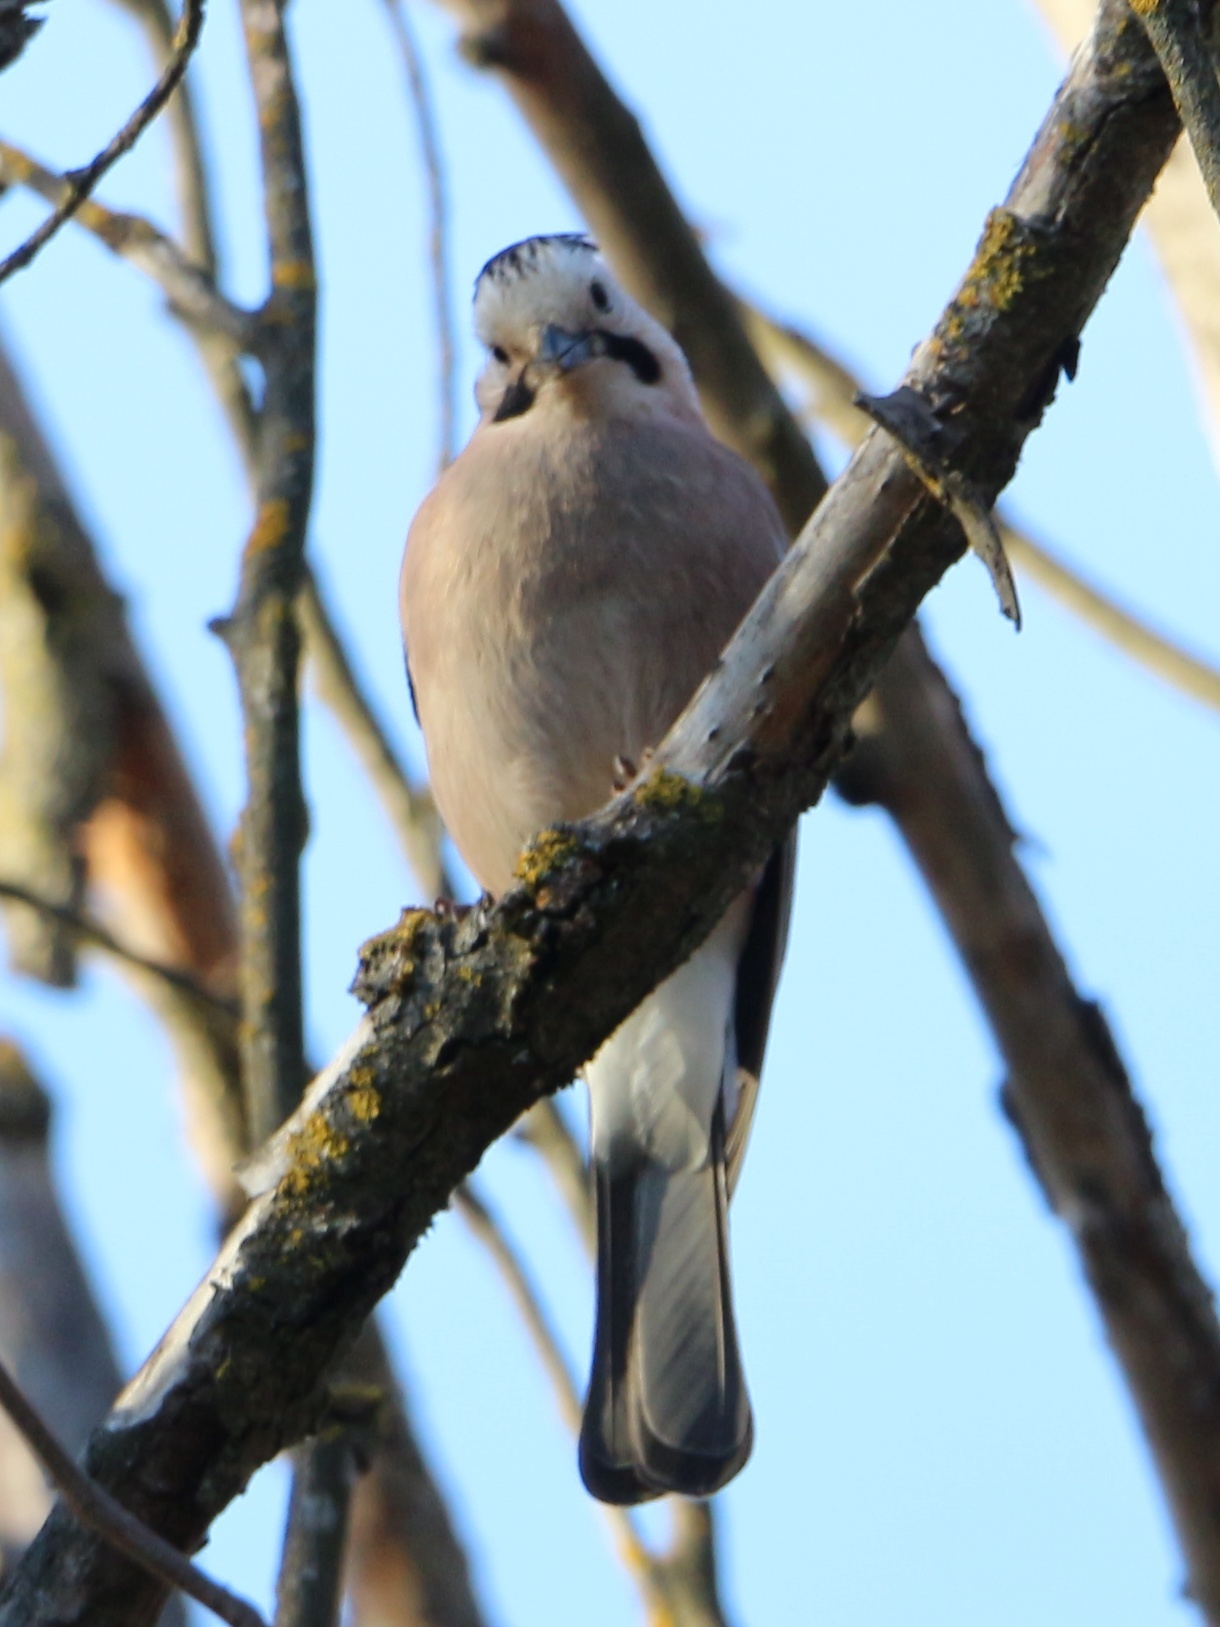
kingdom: Animalia
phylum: Chordata
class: Aves
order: Passeriformes
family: Corvidae
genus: Garrulus
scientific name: Garrulus glandarius
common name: Eurasian jay
